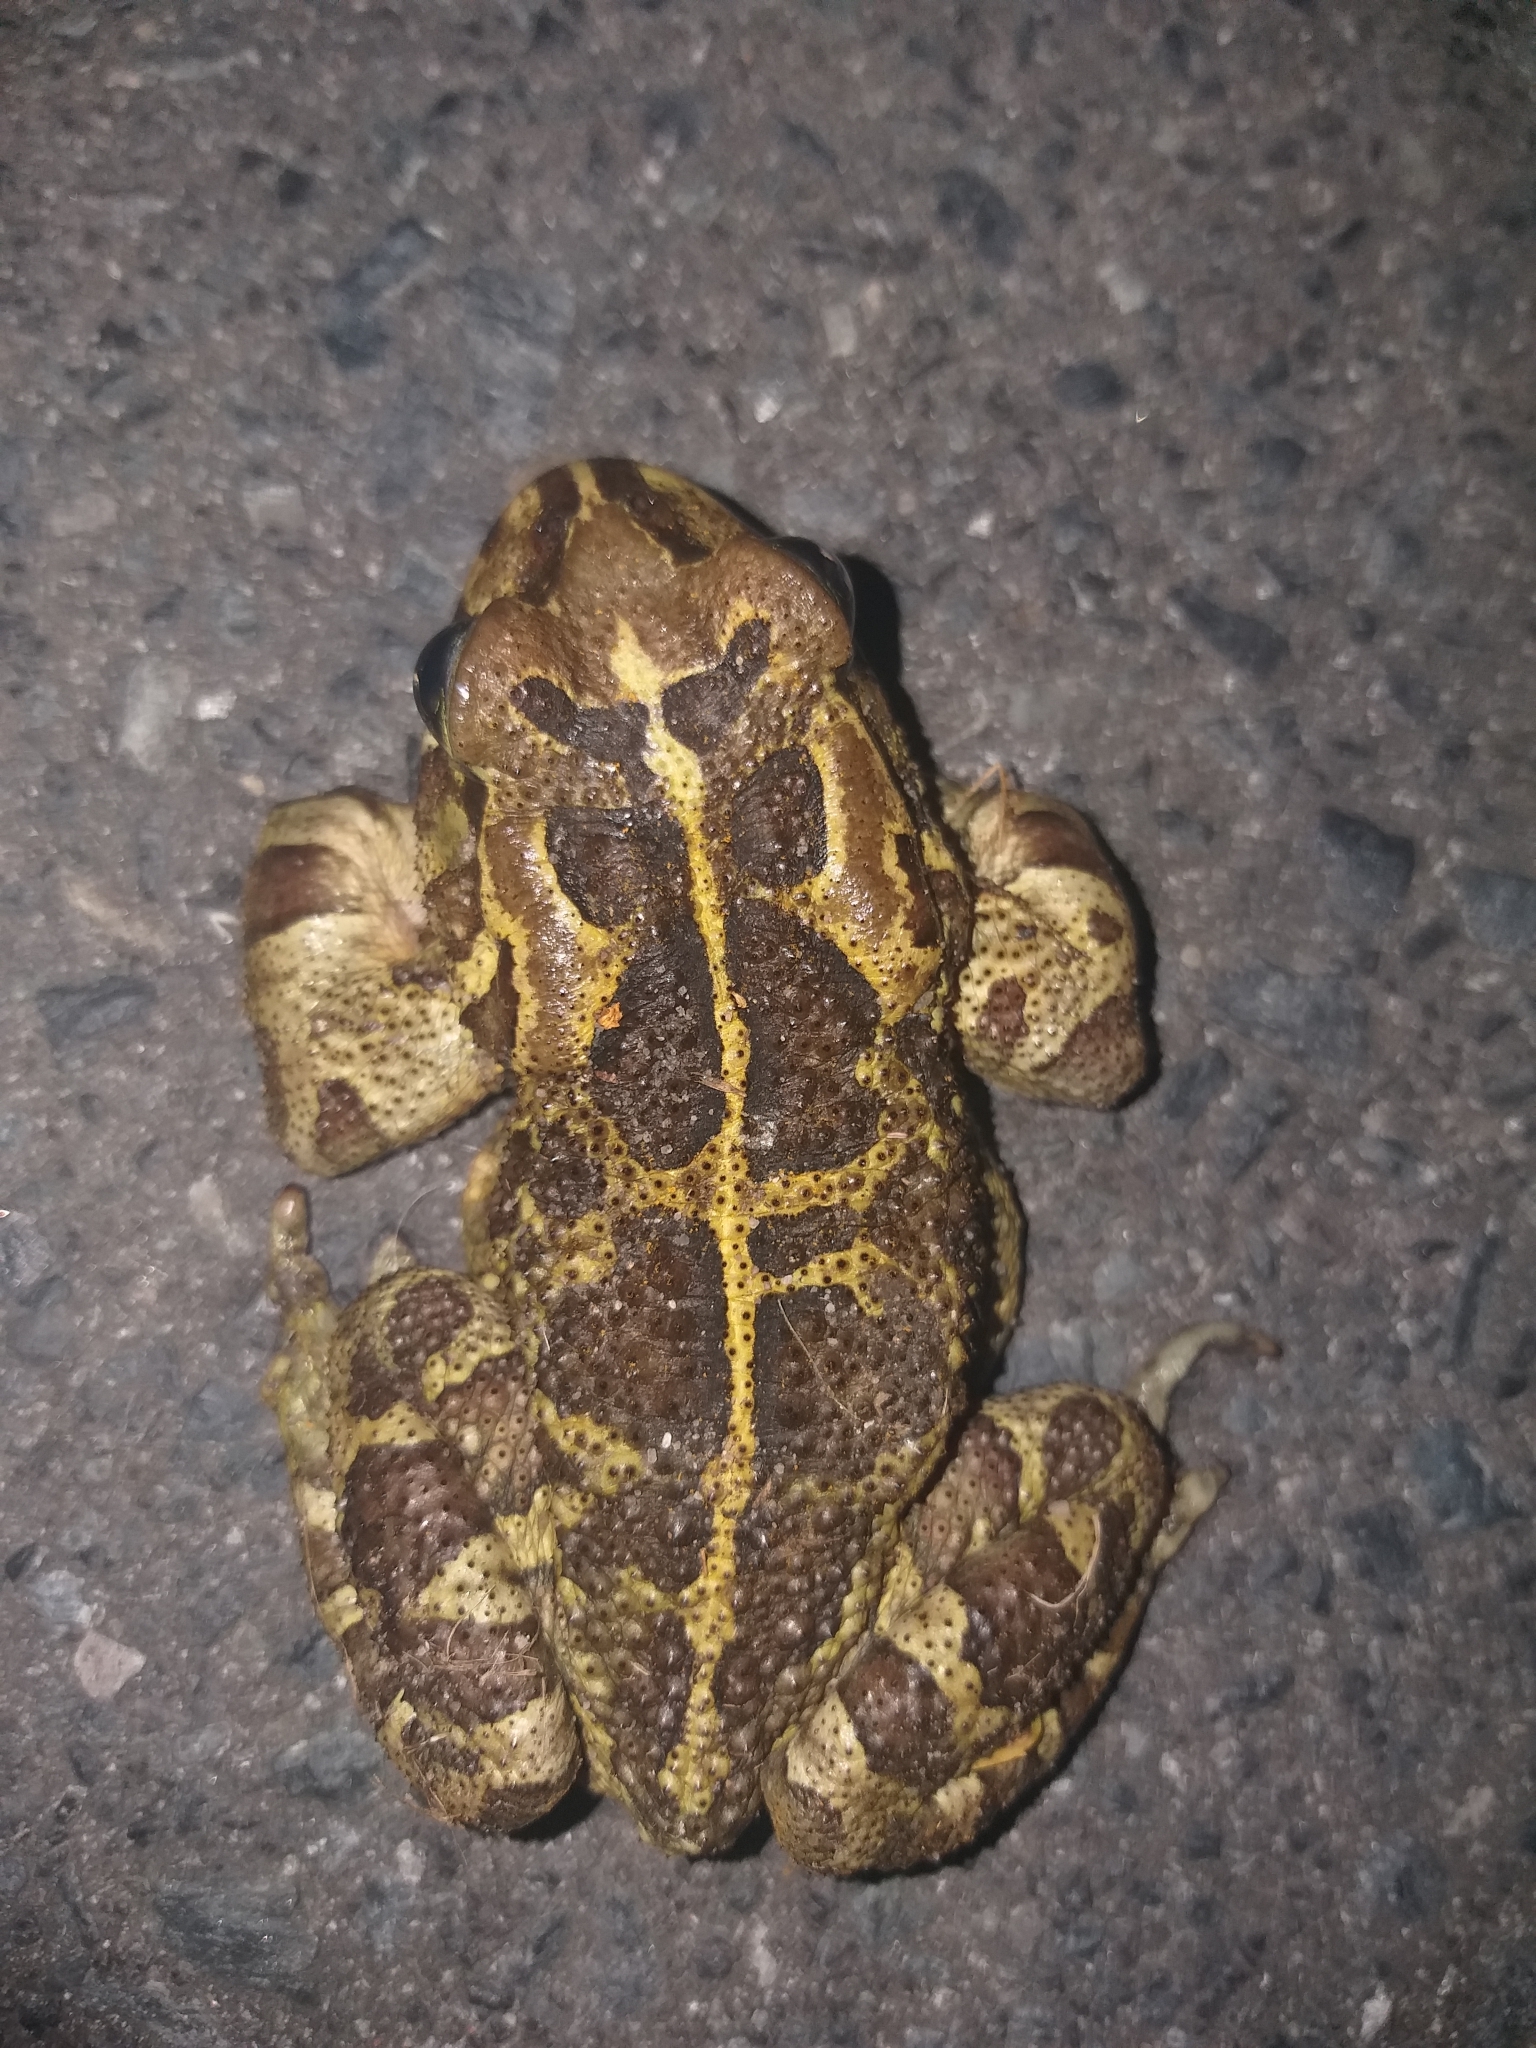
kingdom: Animalia
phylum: Chordata
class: Amphibia
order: Anura
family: Bufonidae
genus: Sclerophrys
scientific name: Sclerophrys pantherina
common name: Panther toad
